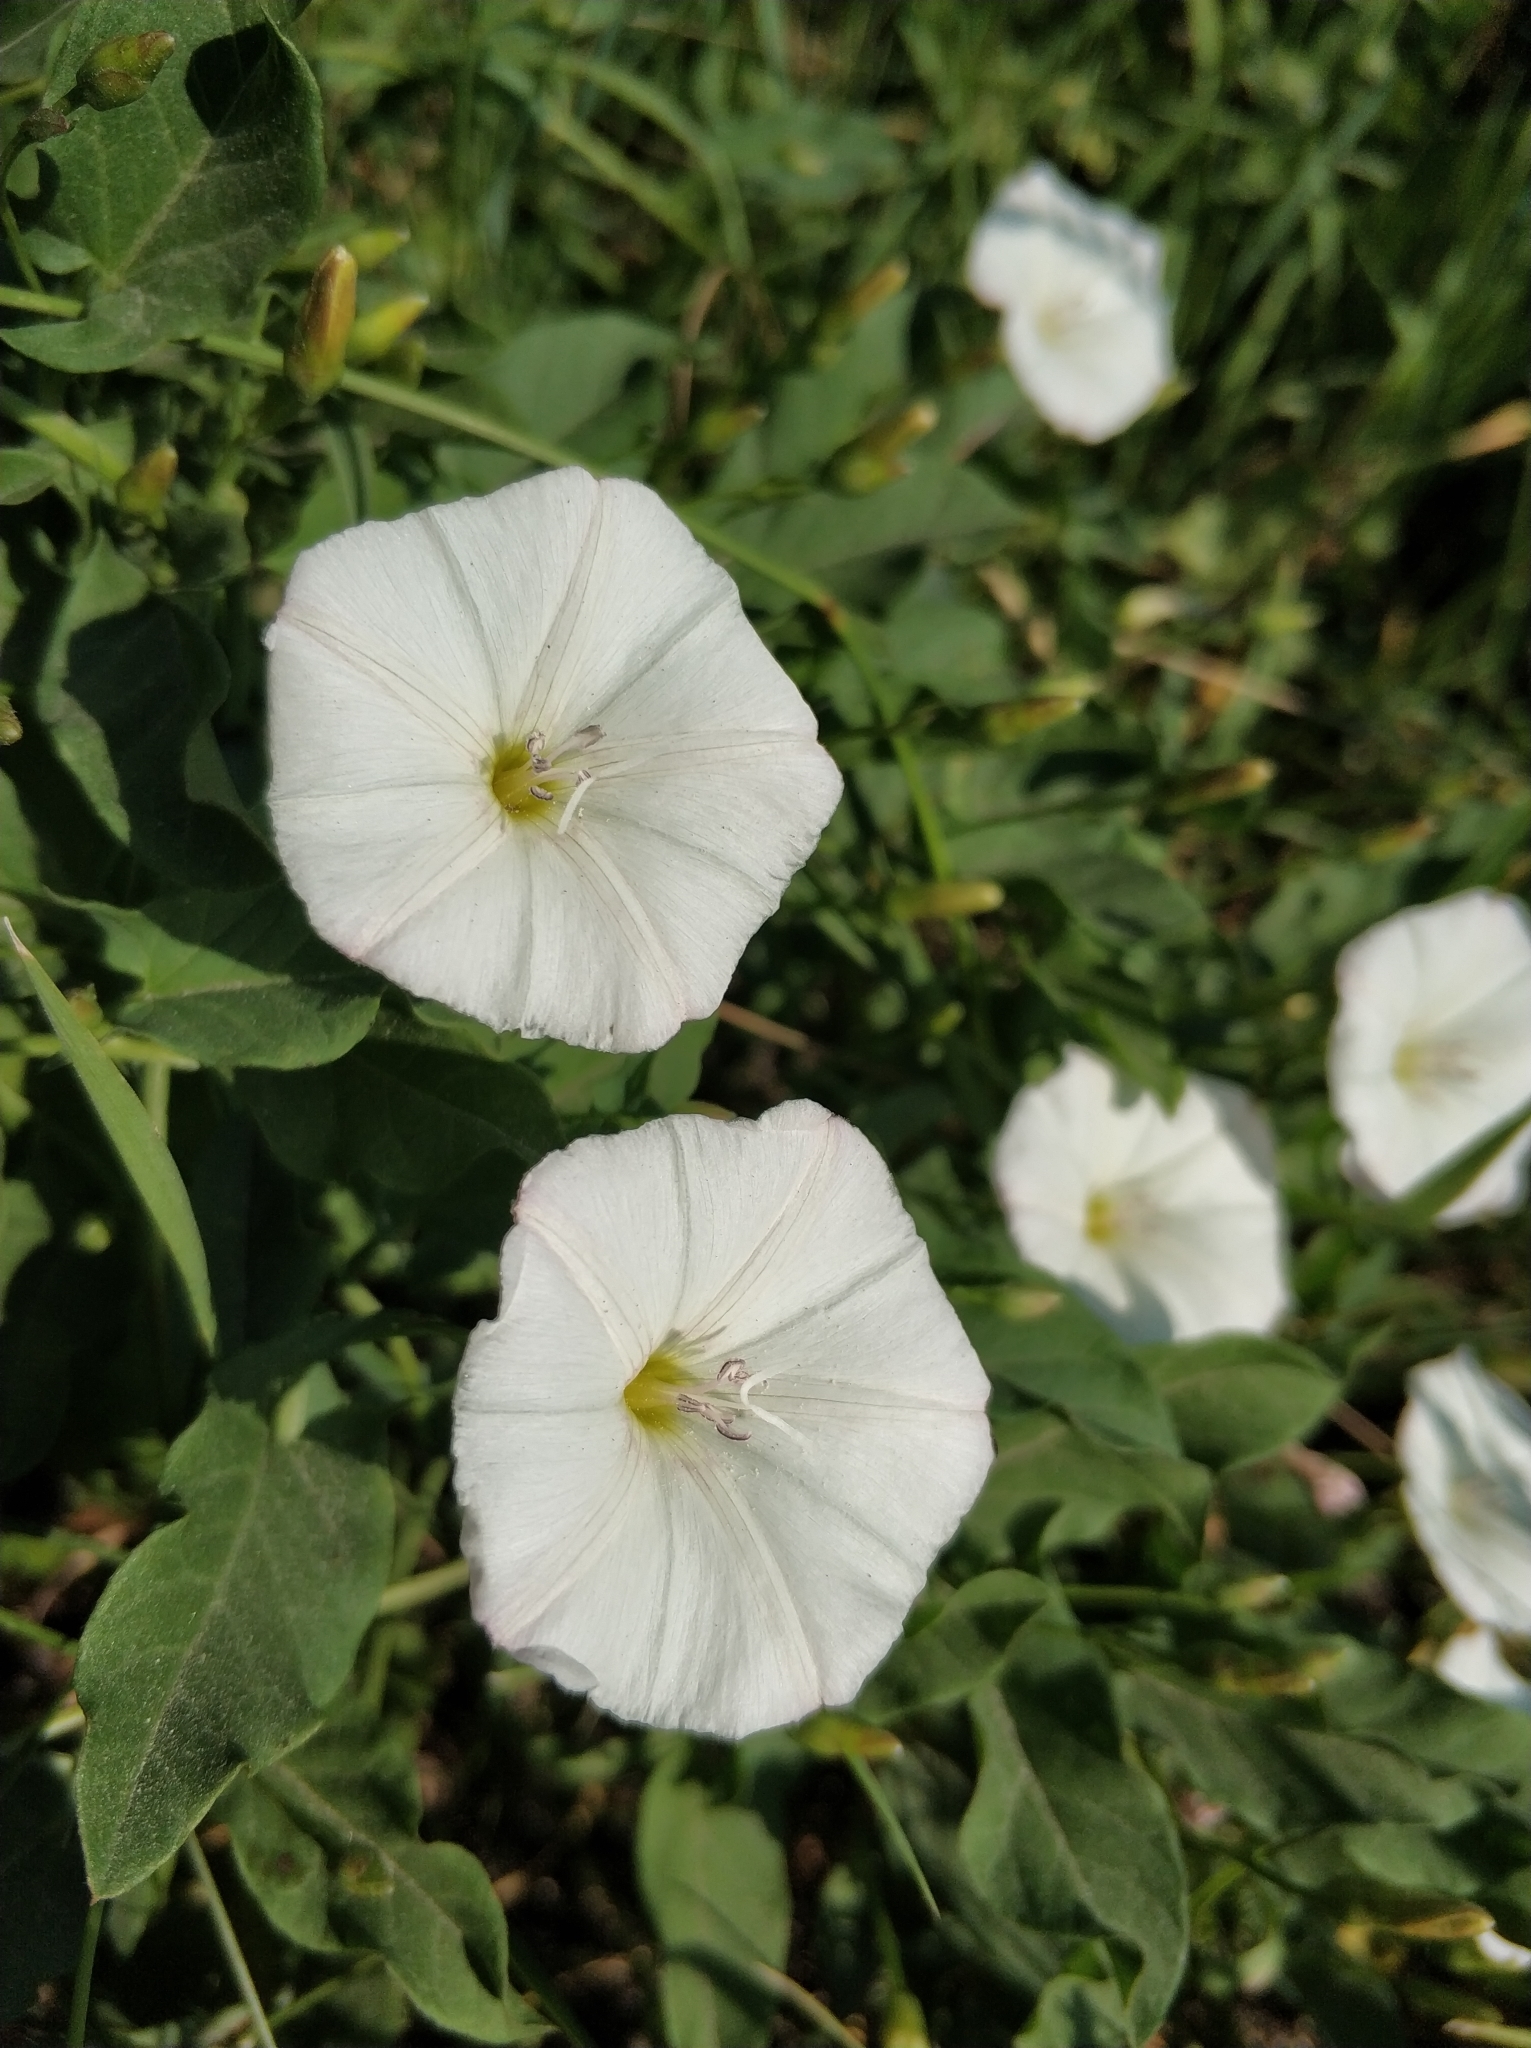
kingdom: Plantae
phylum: Tracheophyta
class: Magnoliopsida
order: Solanales
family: Convolvulaceae
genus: Convolvulus
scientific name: Convolvulus arvensis
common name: Field bindweed
